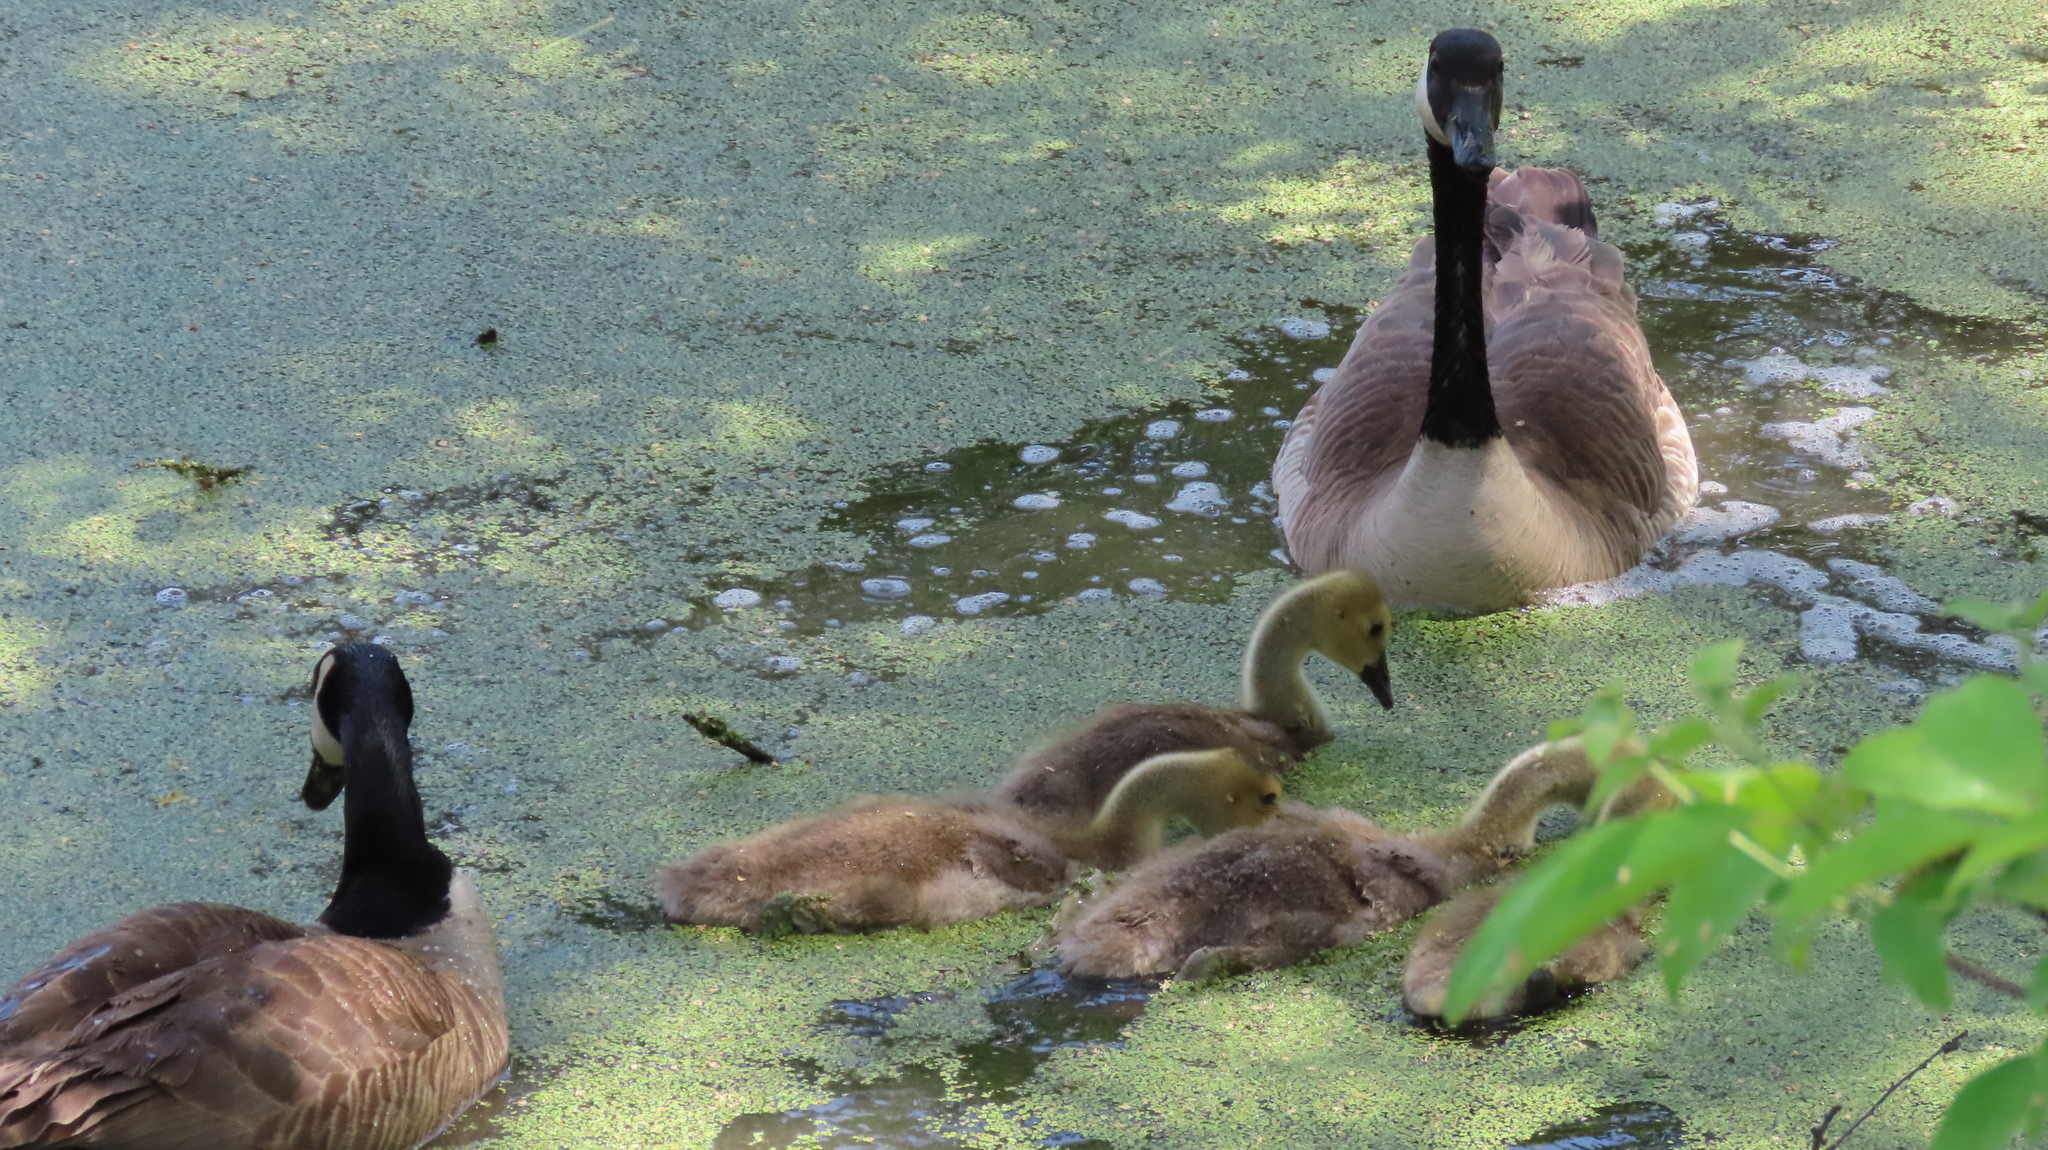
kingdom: Animalia
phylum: Chordata
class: Aves
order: Anseriformes
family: Anatidae
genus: Branta
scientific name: Branta canadensis
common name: Canada goose
